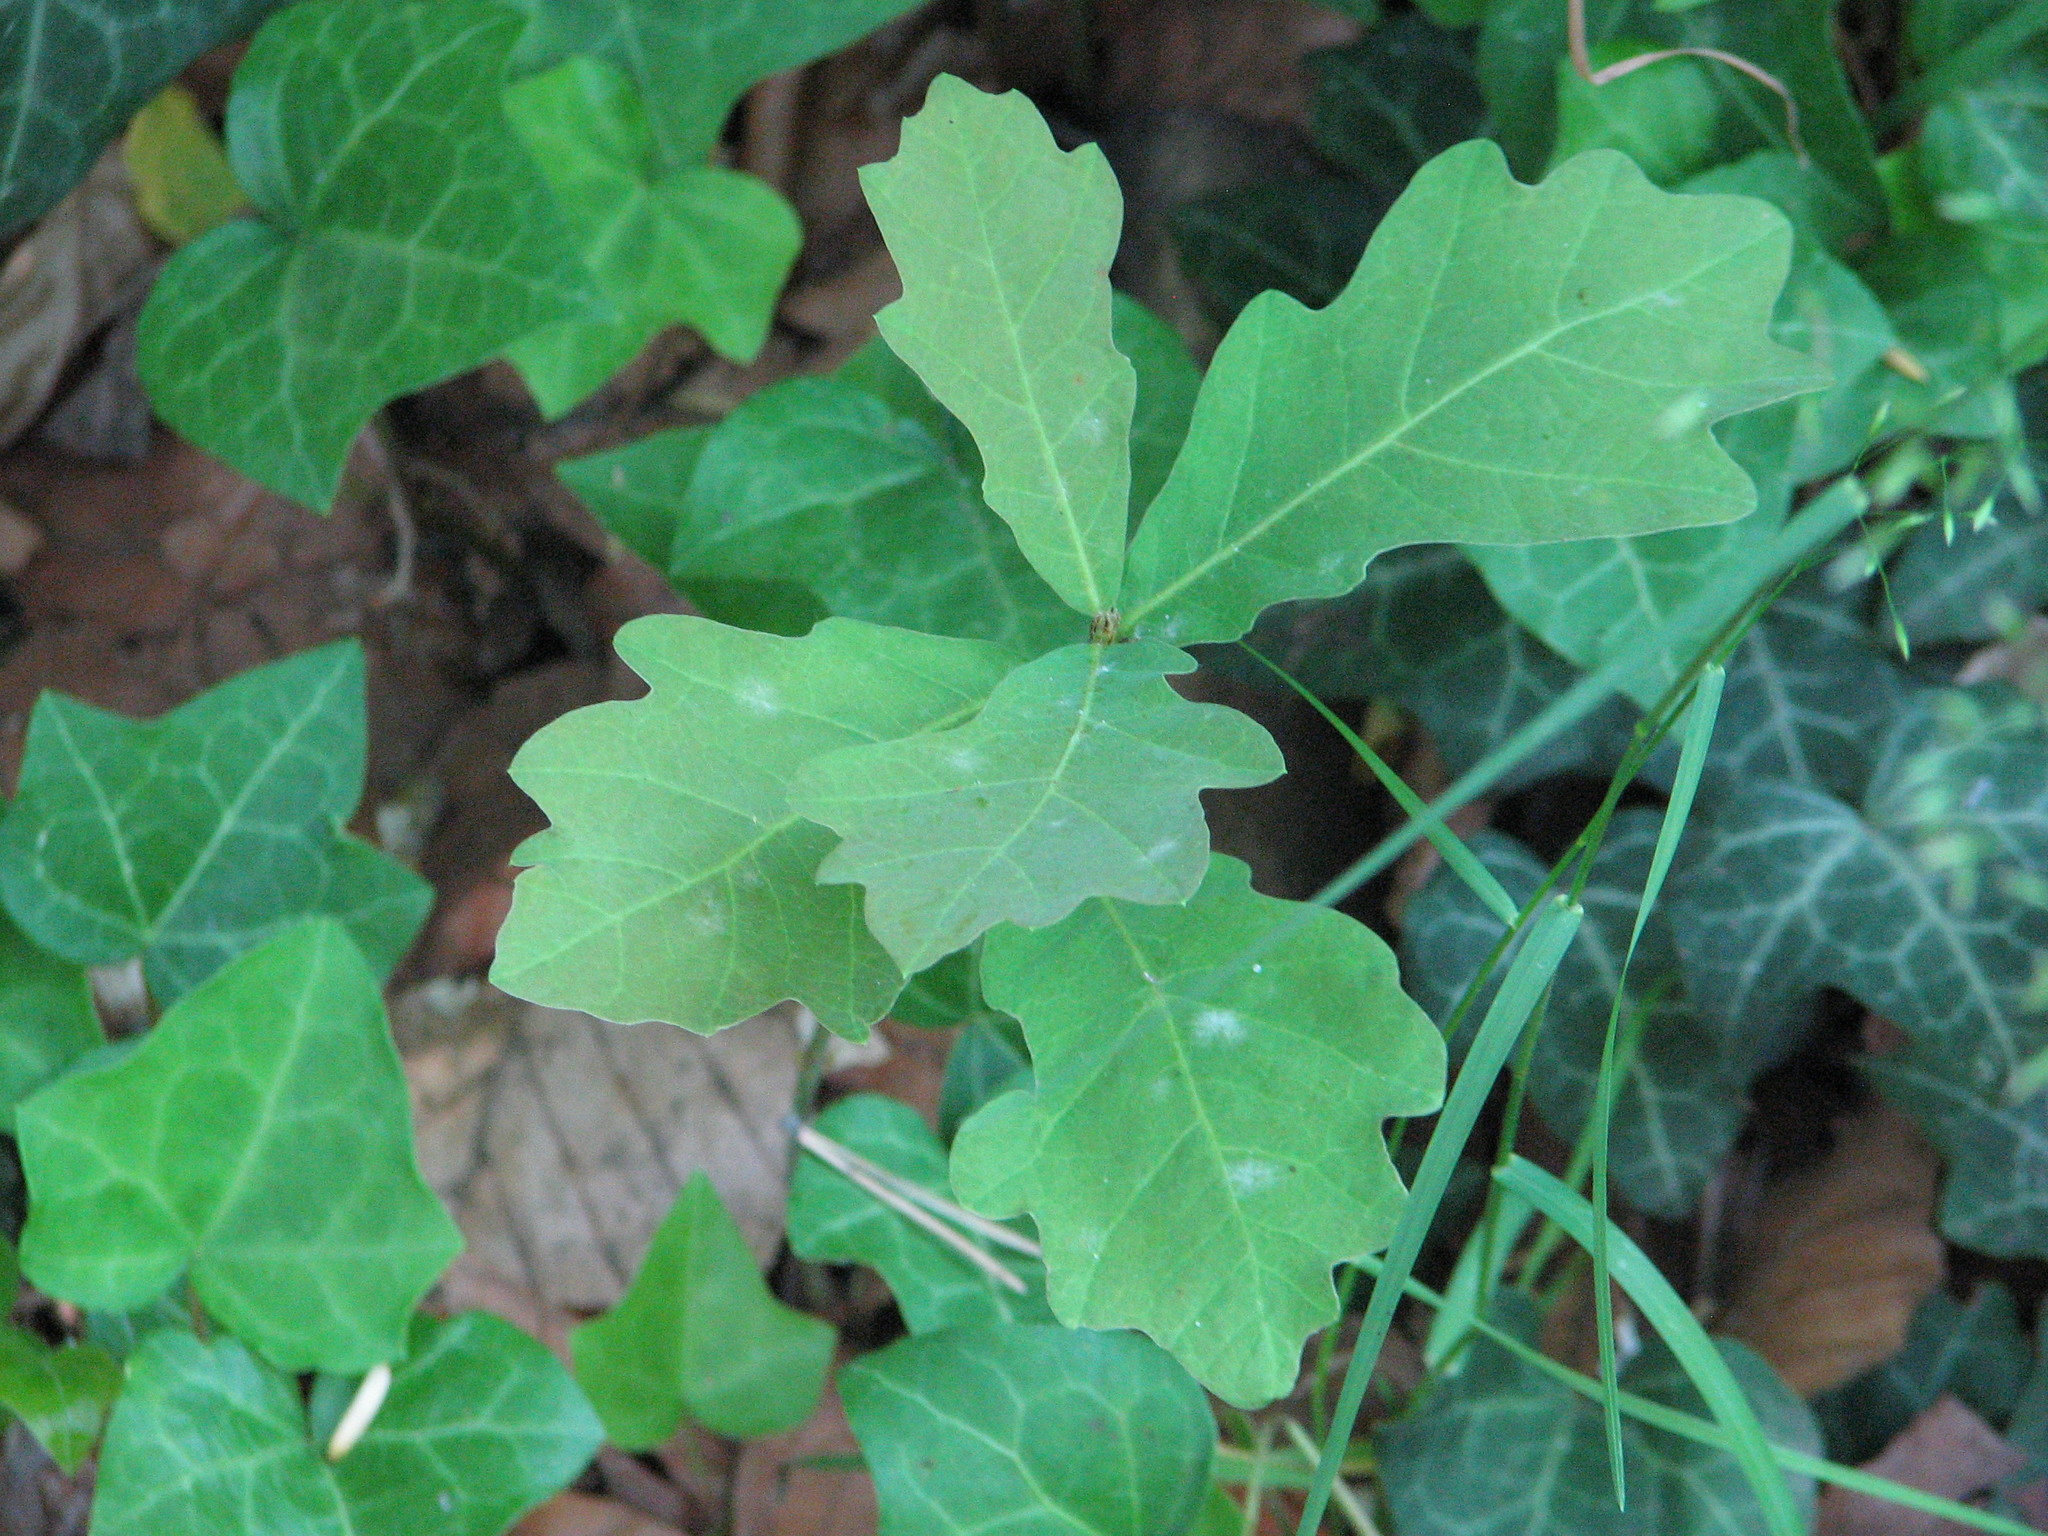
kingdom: Plantae
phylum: Tracheophyta
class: Magnoliopsida
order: Fagales
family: Fagaceae
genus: Quercus
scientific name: Quercus robur
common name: Pedunculate oak
